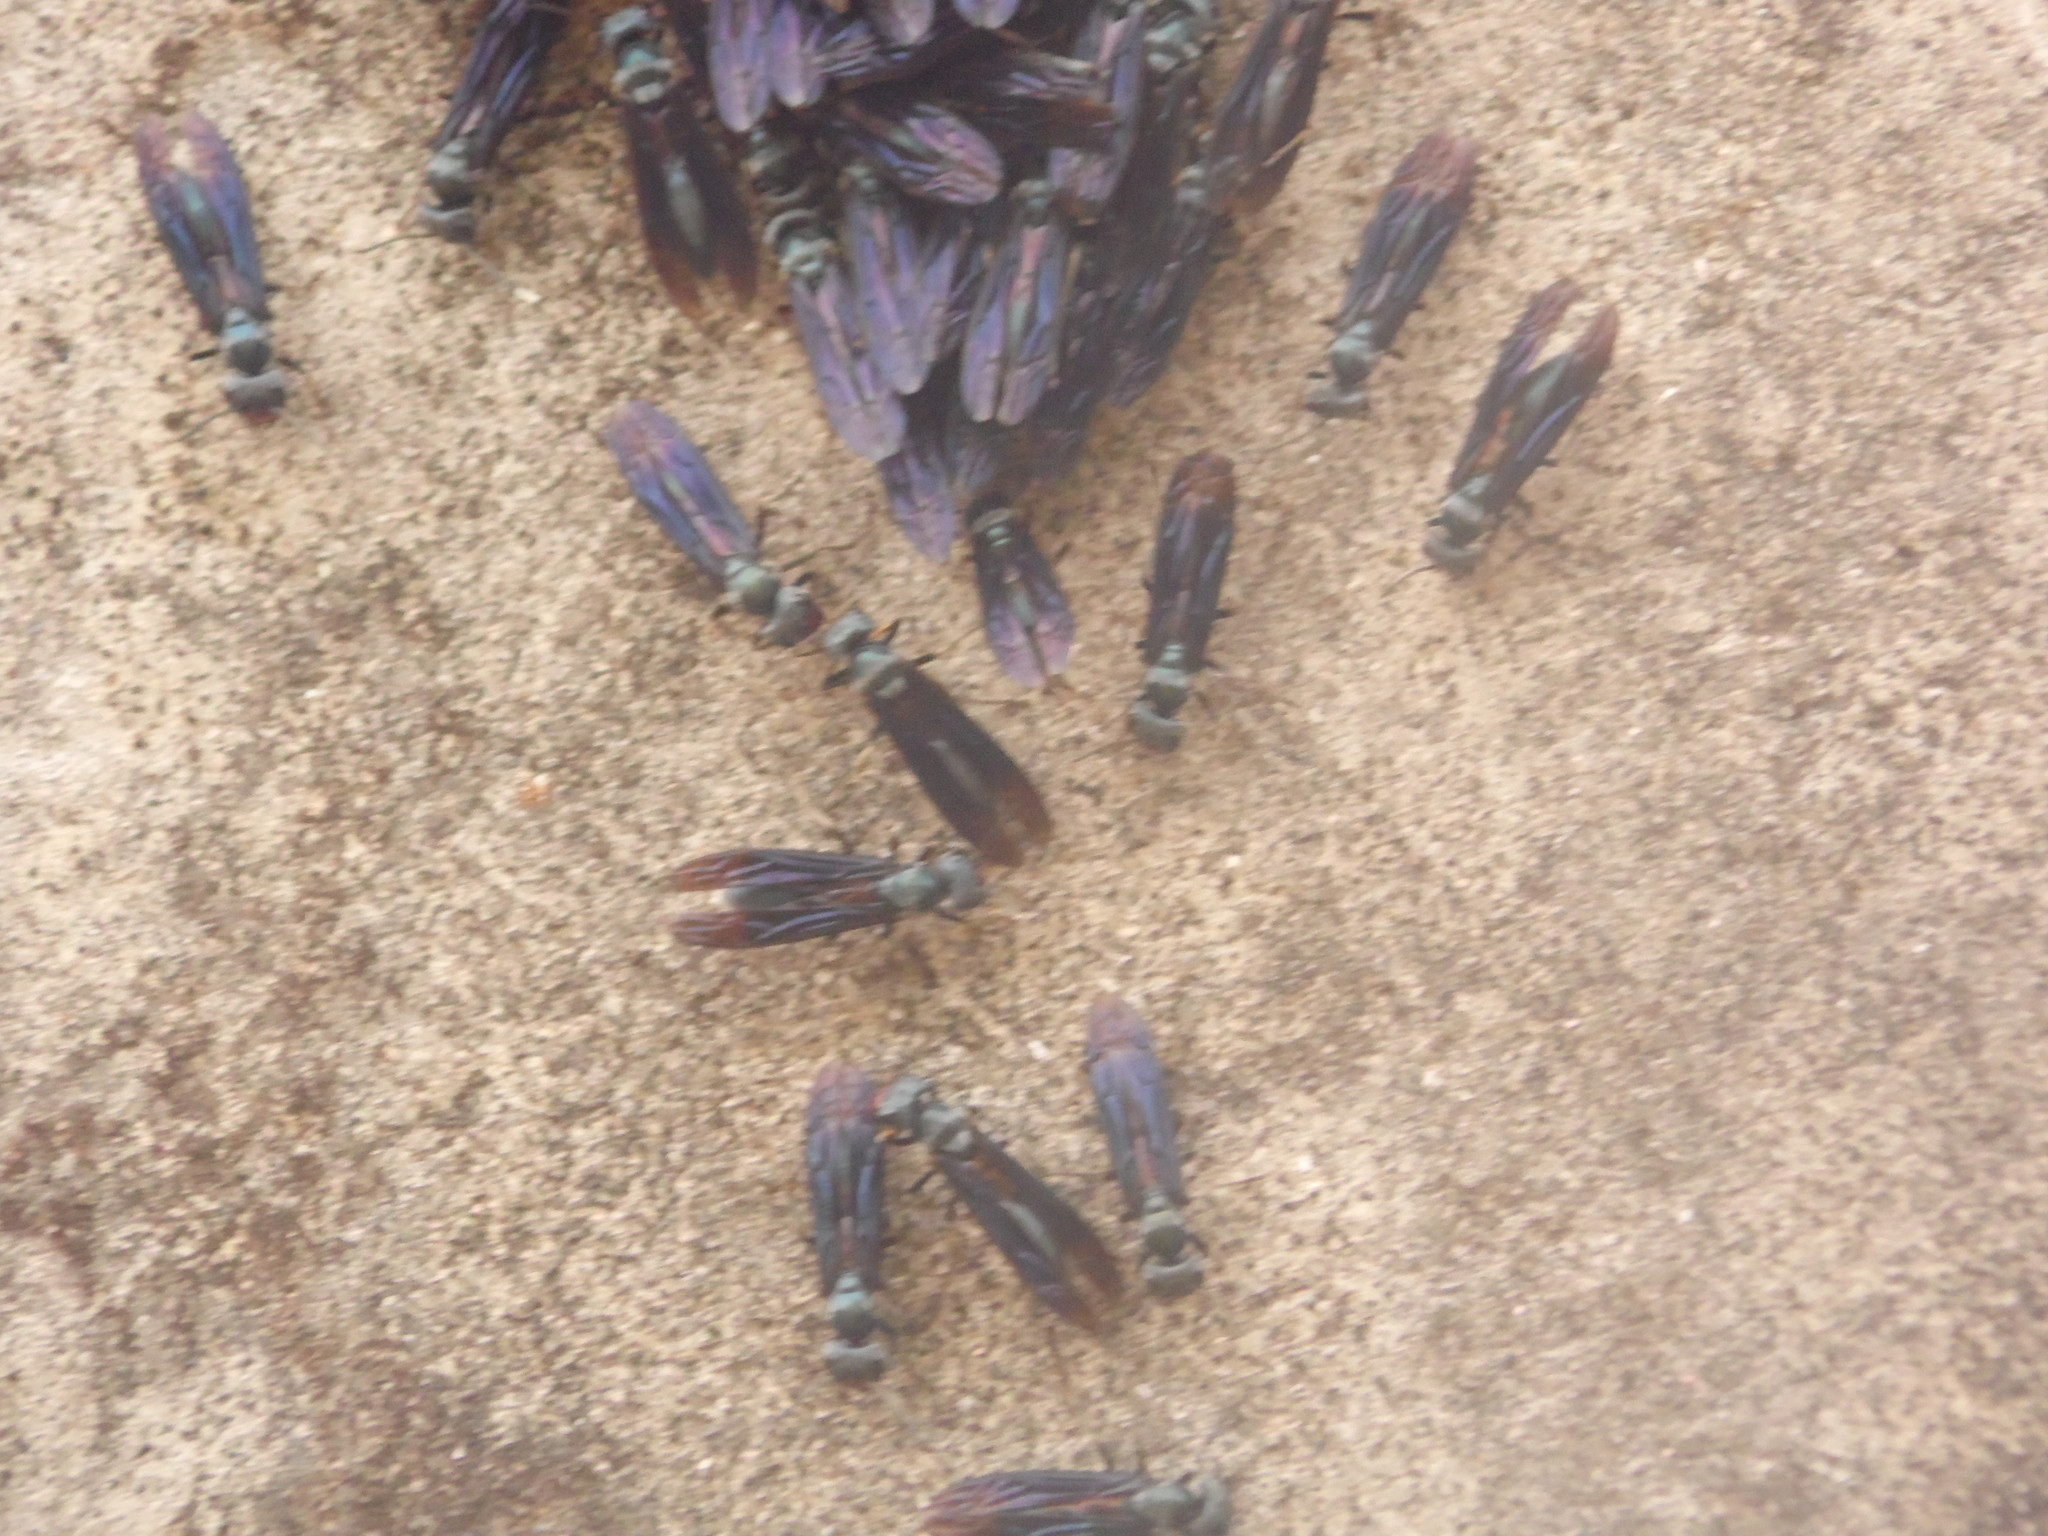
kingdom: Animalia
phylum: Arthropoda
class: Insecta
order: Hymenoptera
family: Vespidae
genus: Synoeca
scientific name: Synoeca cyanea
